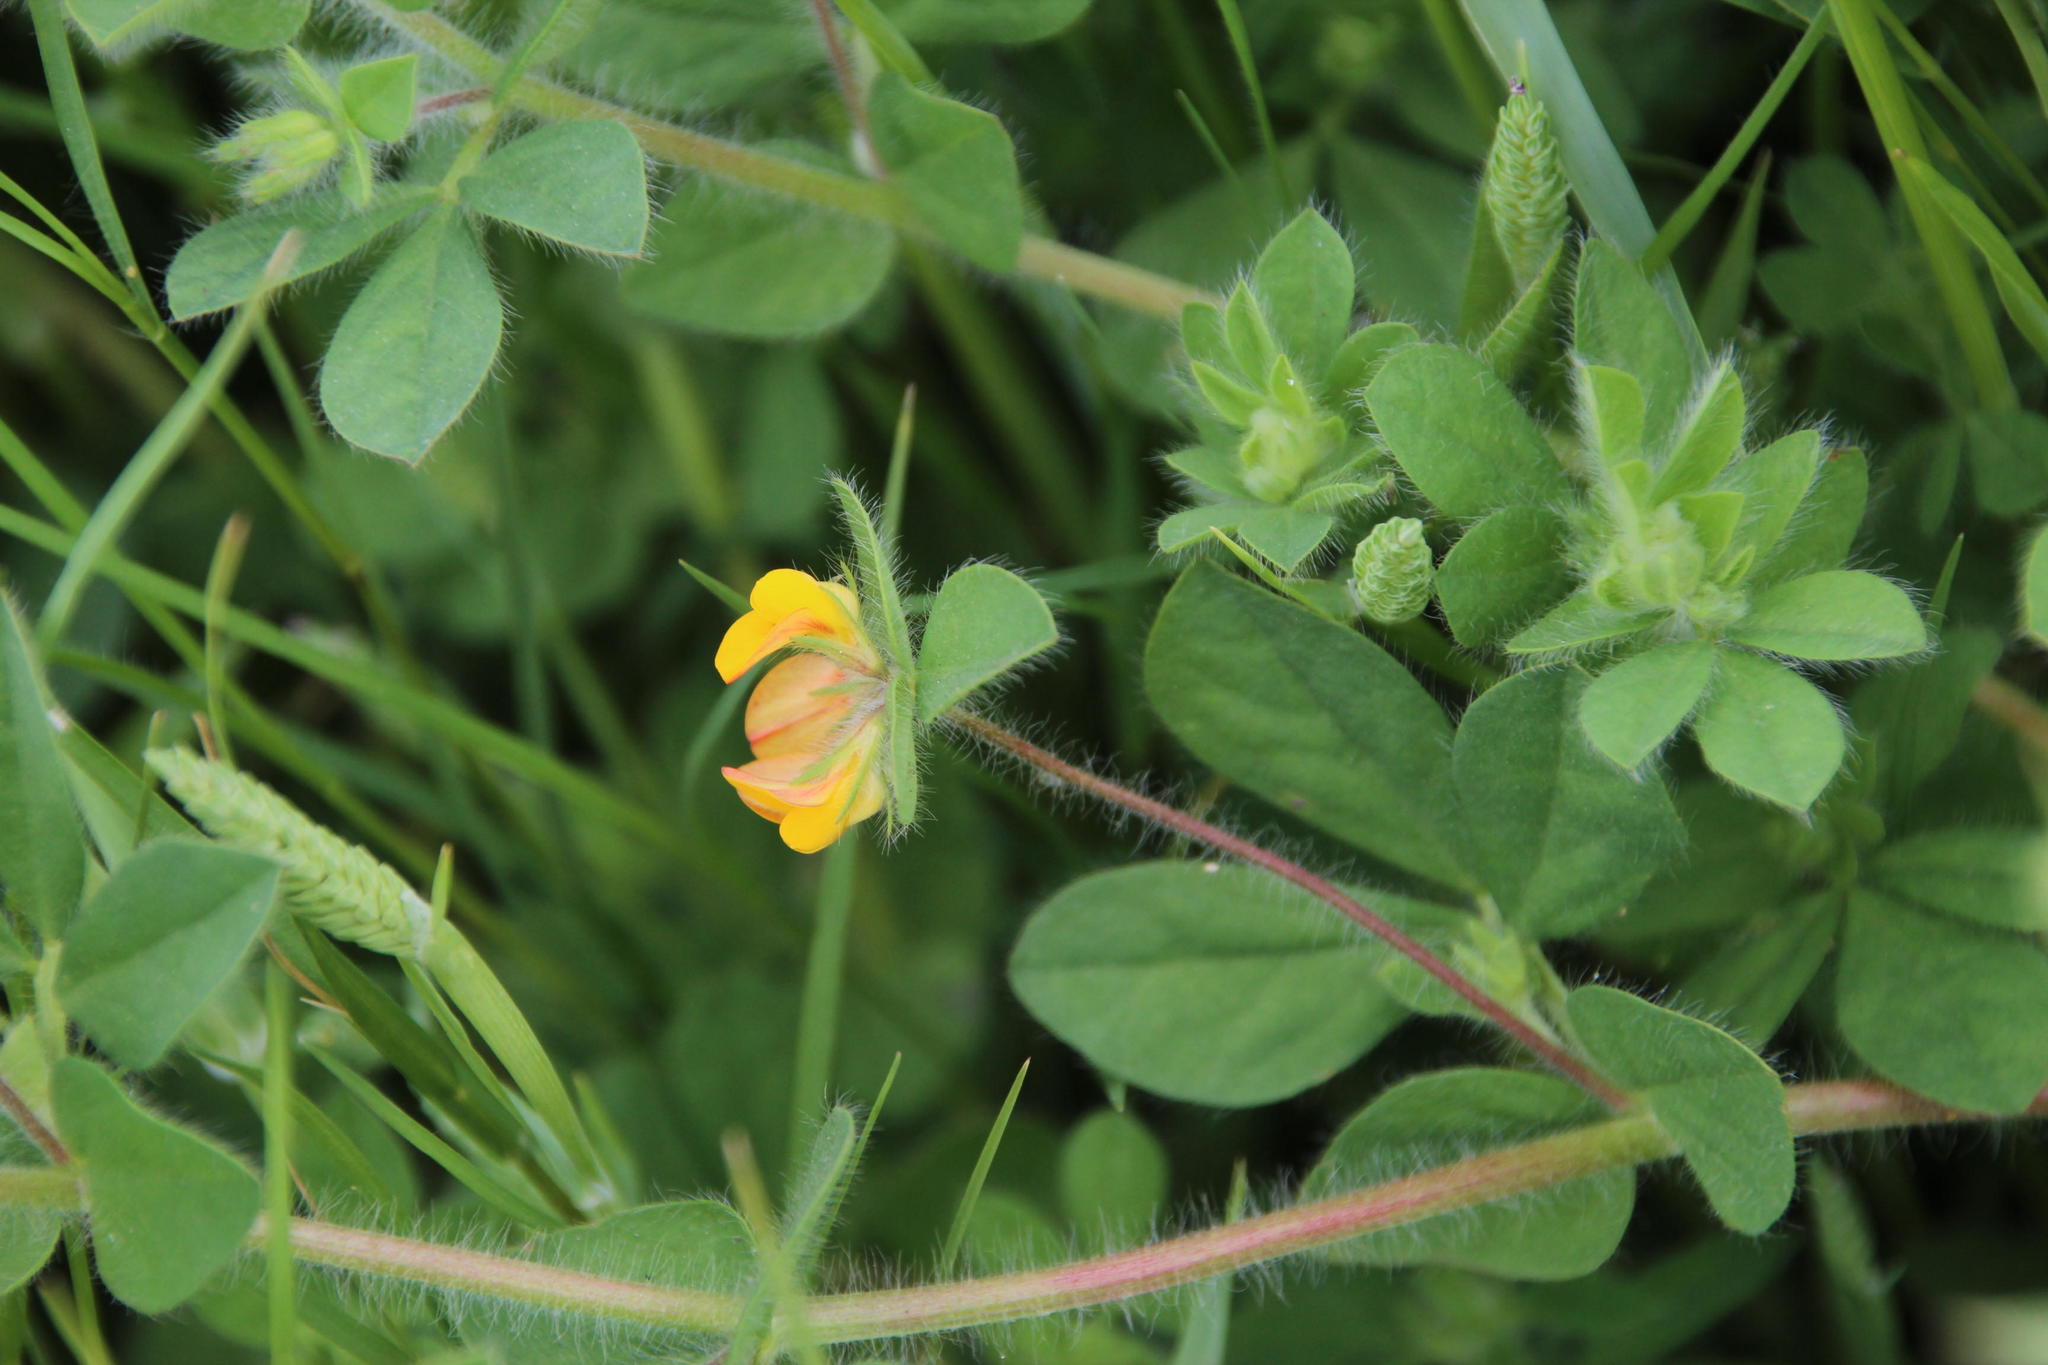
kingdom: Plantae
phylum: Tracheophyta
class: Magnoliopsida
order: Fabales
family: Fabaceae
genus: Lotus
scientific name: Lotus subbiflorus
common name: Hairy bird's-foot trefoil
